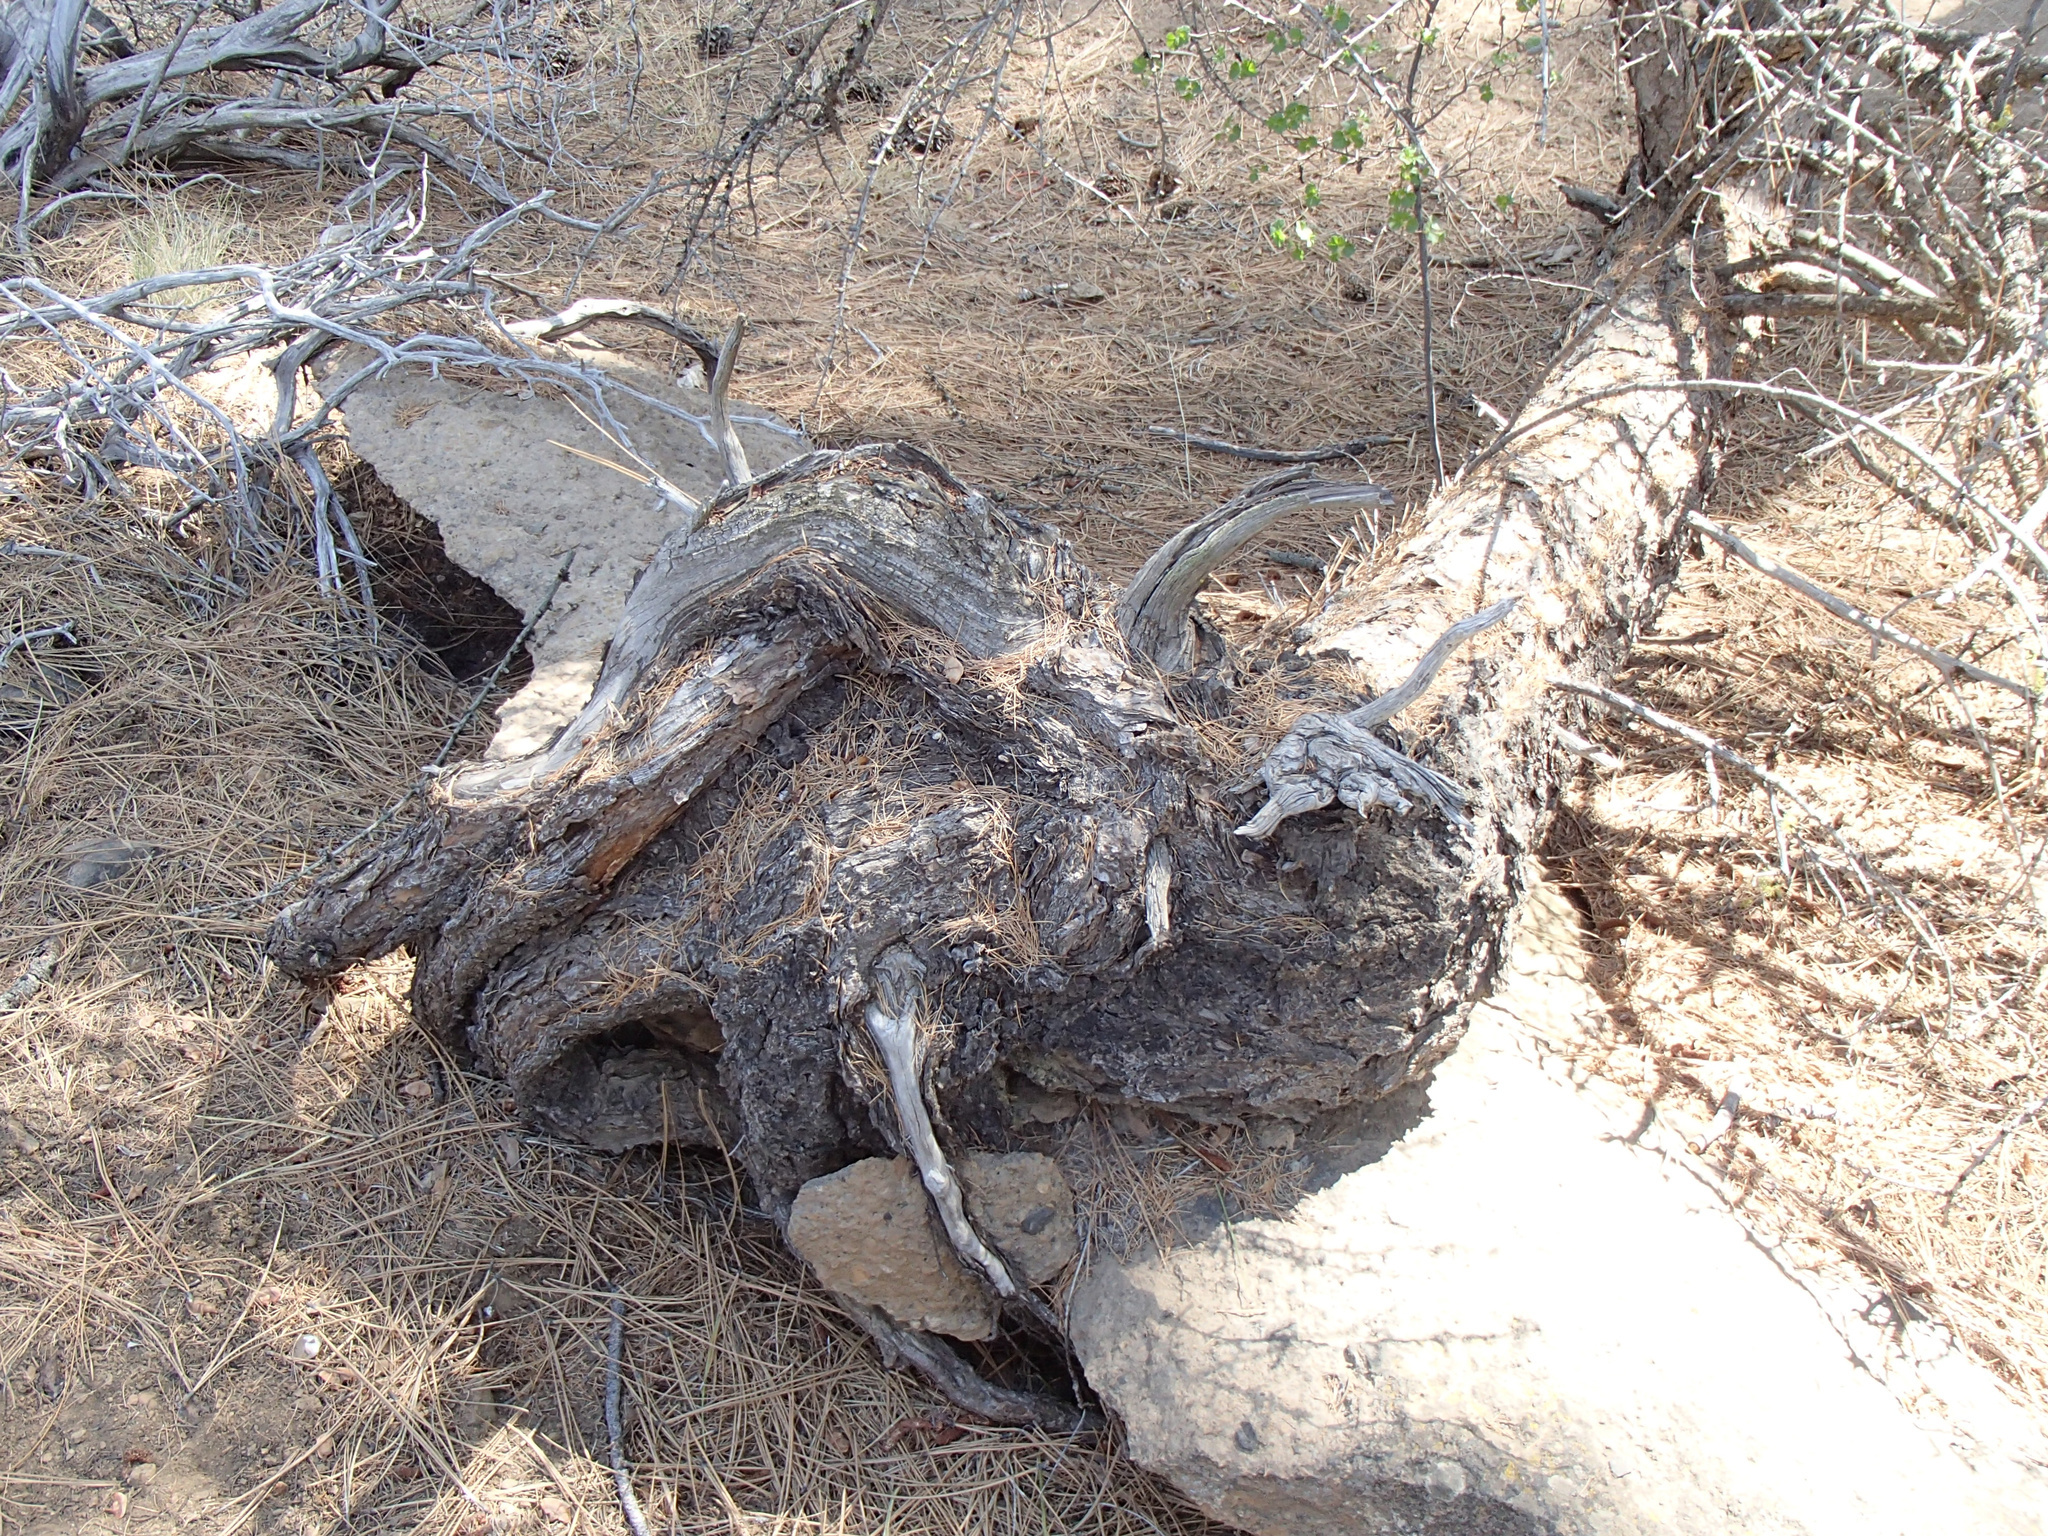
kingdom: Plantae
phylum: Tracheophyta
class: Pinopsida
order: Pinales
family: Pinaceae
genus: Larix
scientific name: Larix occidentalis
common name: Western larch
